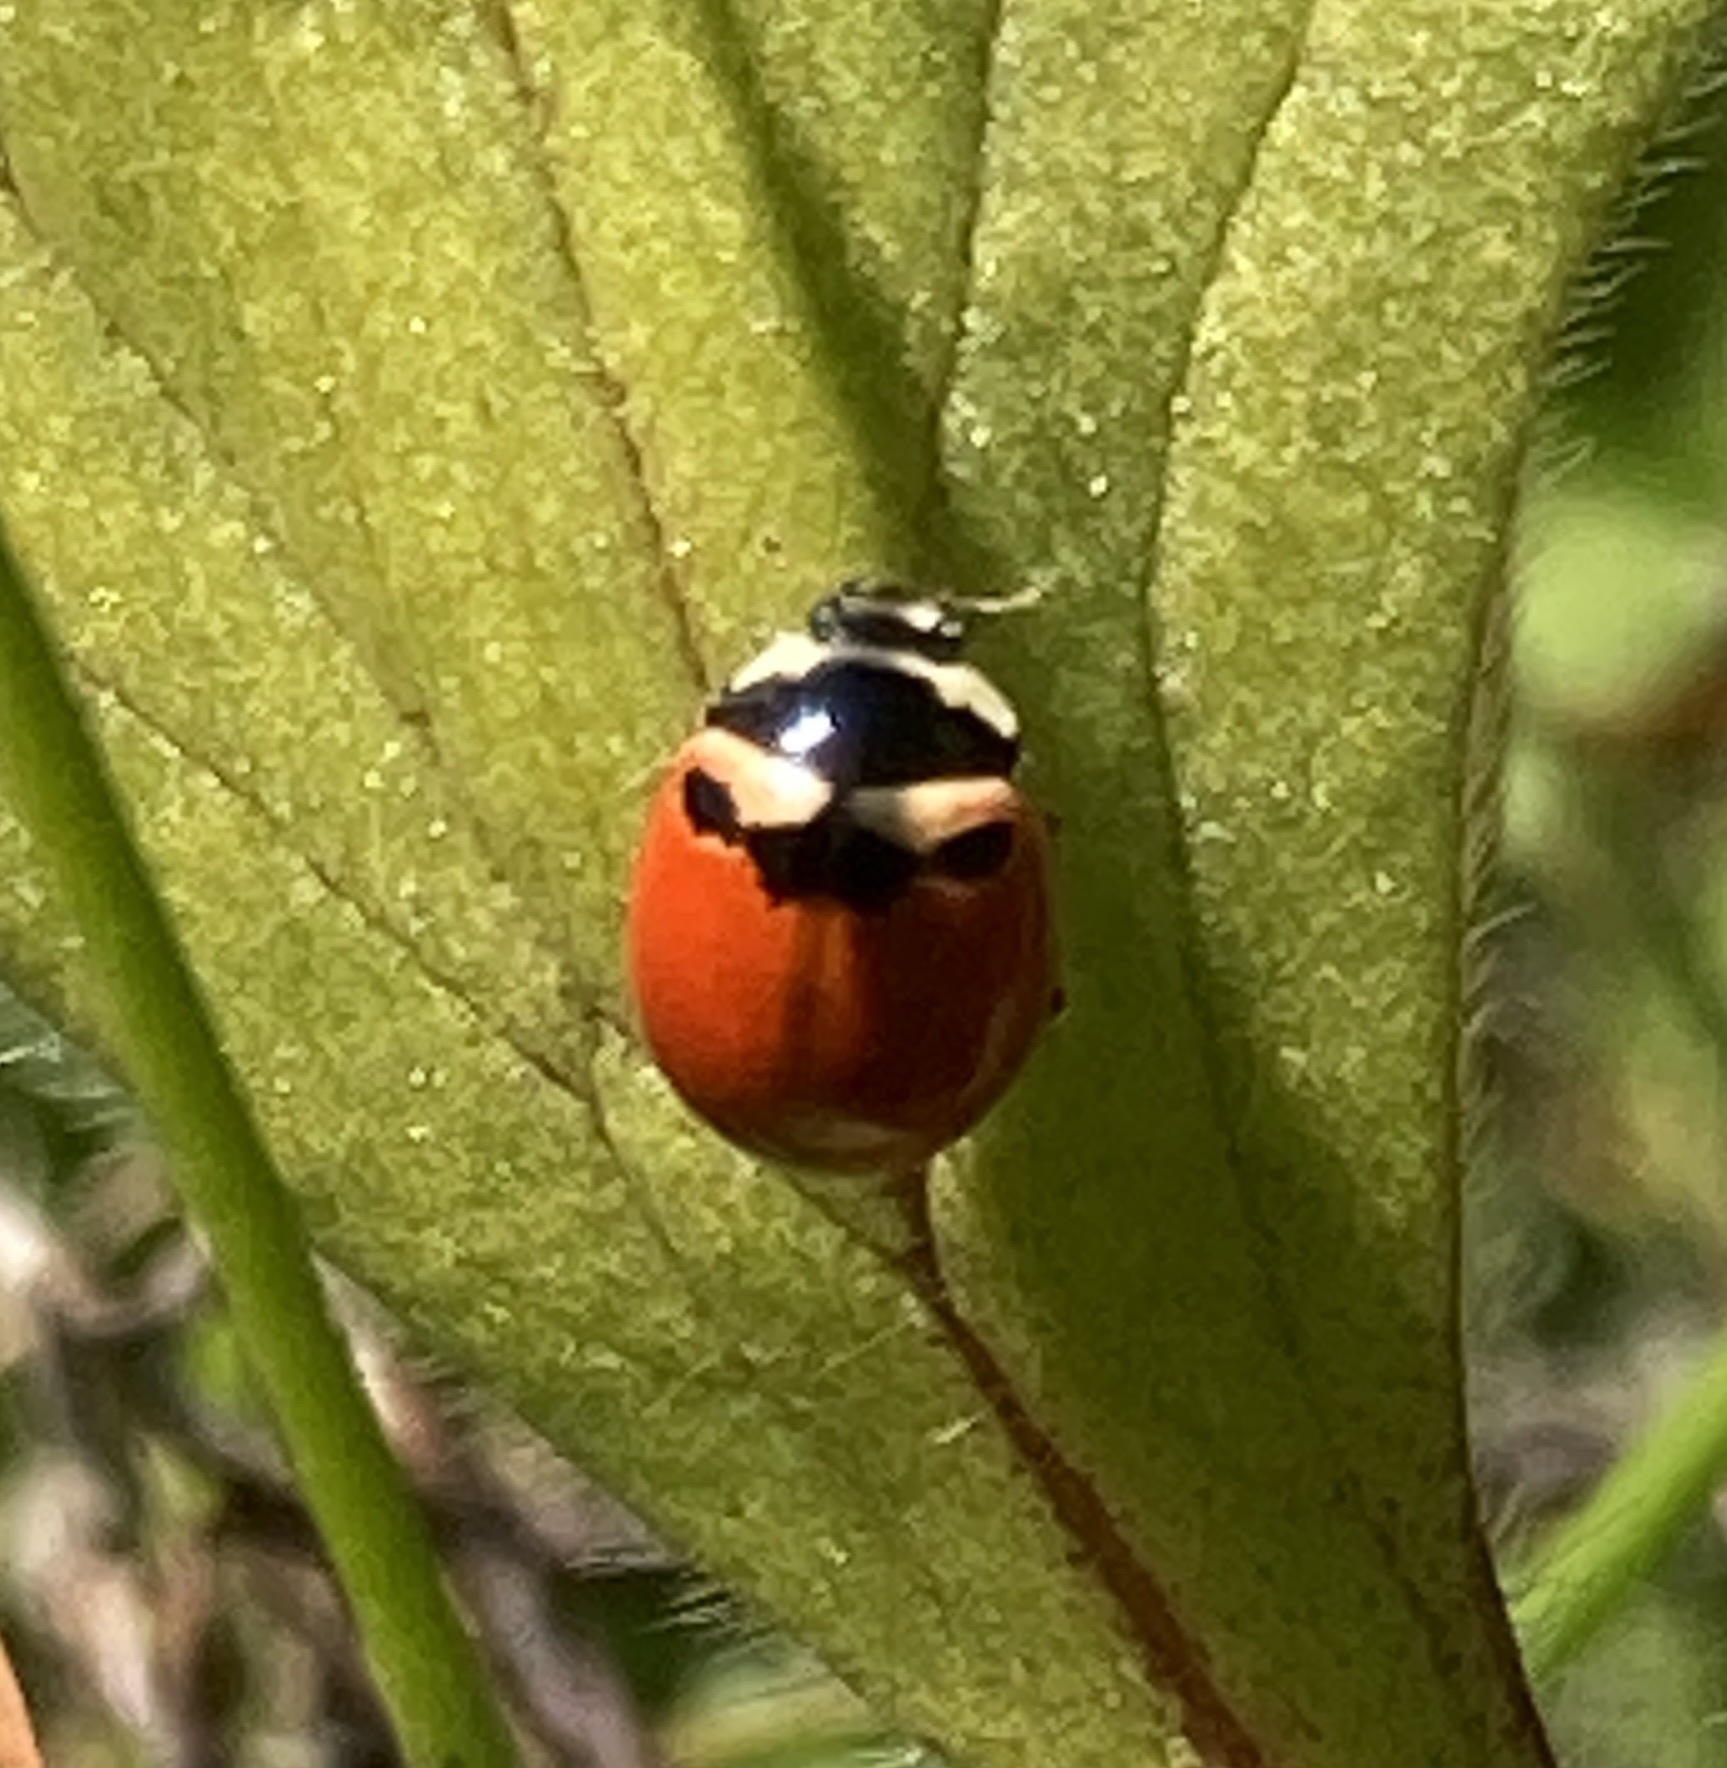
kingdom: Animalia
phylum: Arthropoda
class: Insecta
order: Coleoptera
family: Coccinellidae
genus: Coccinella
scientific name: Coccinella trifasciata
